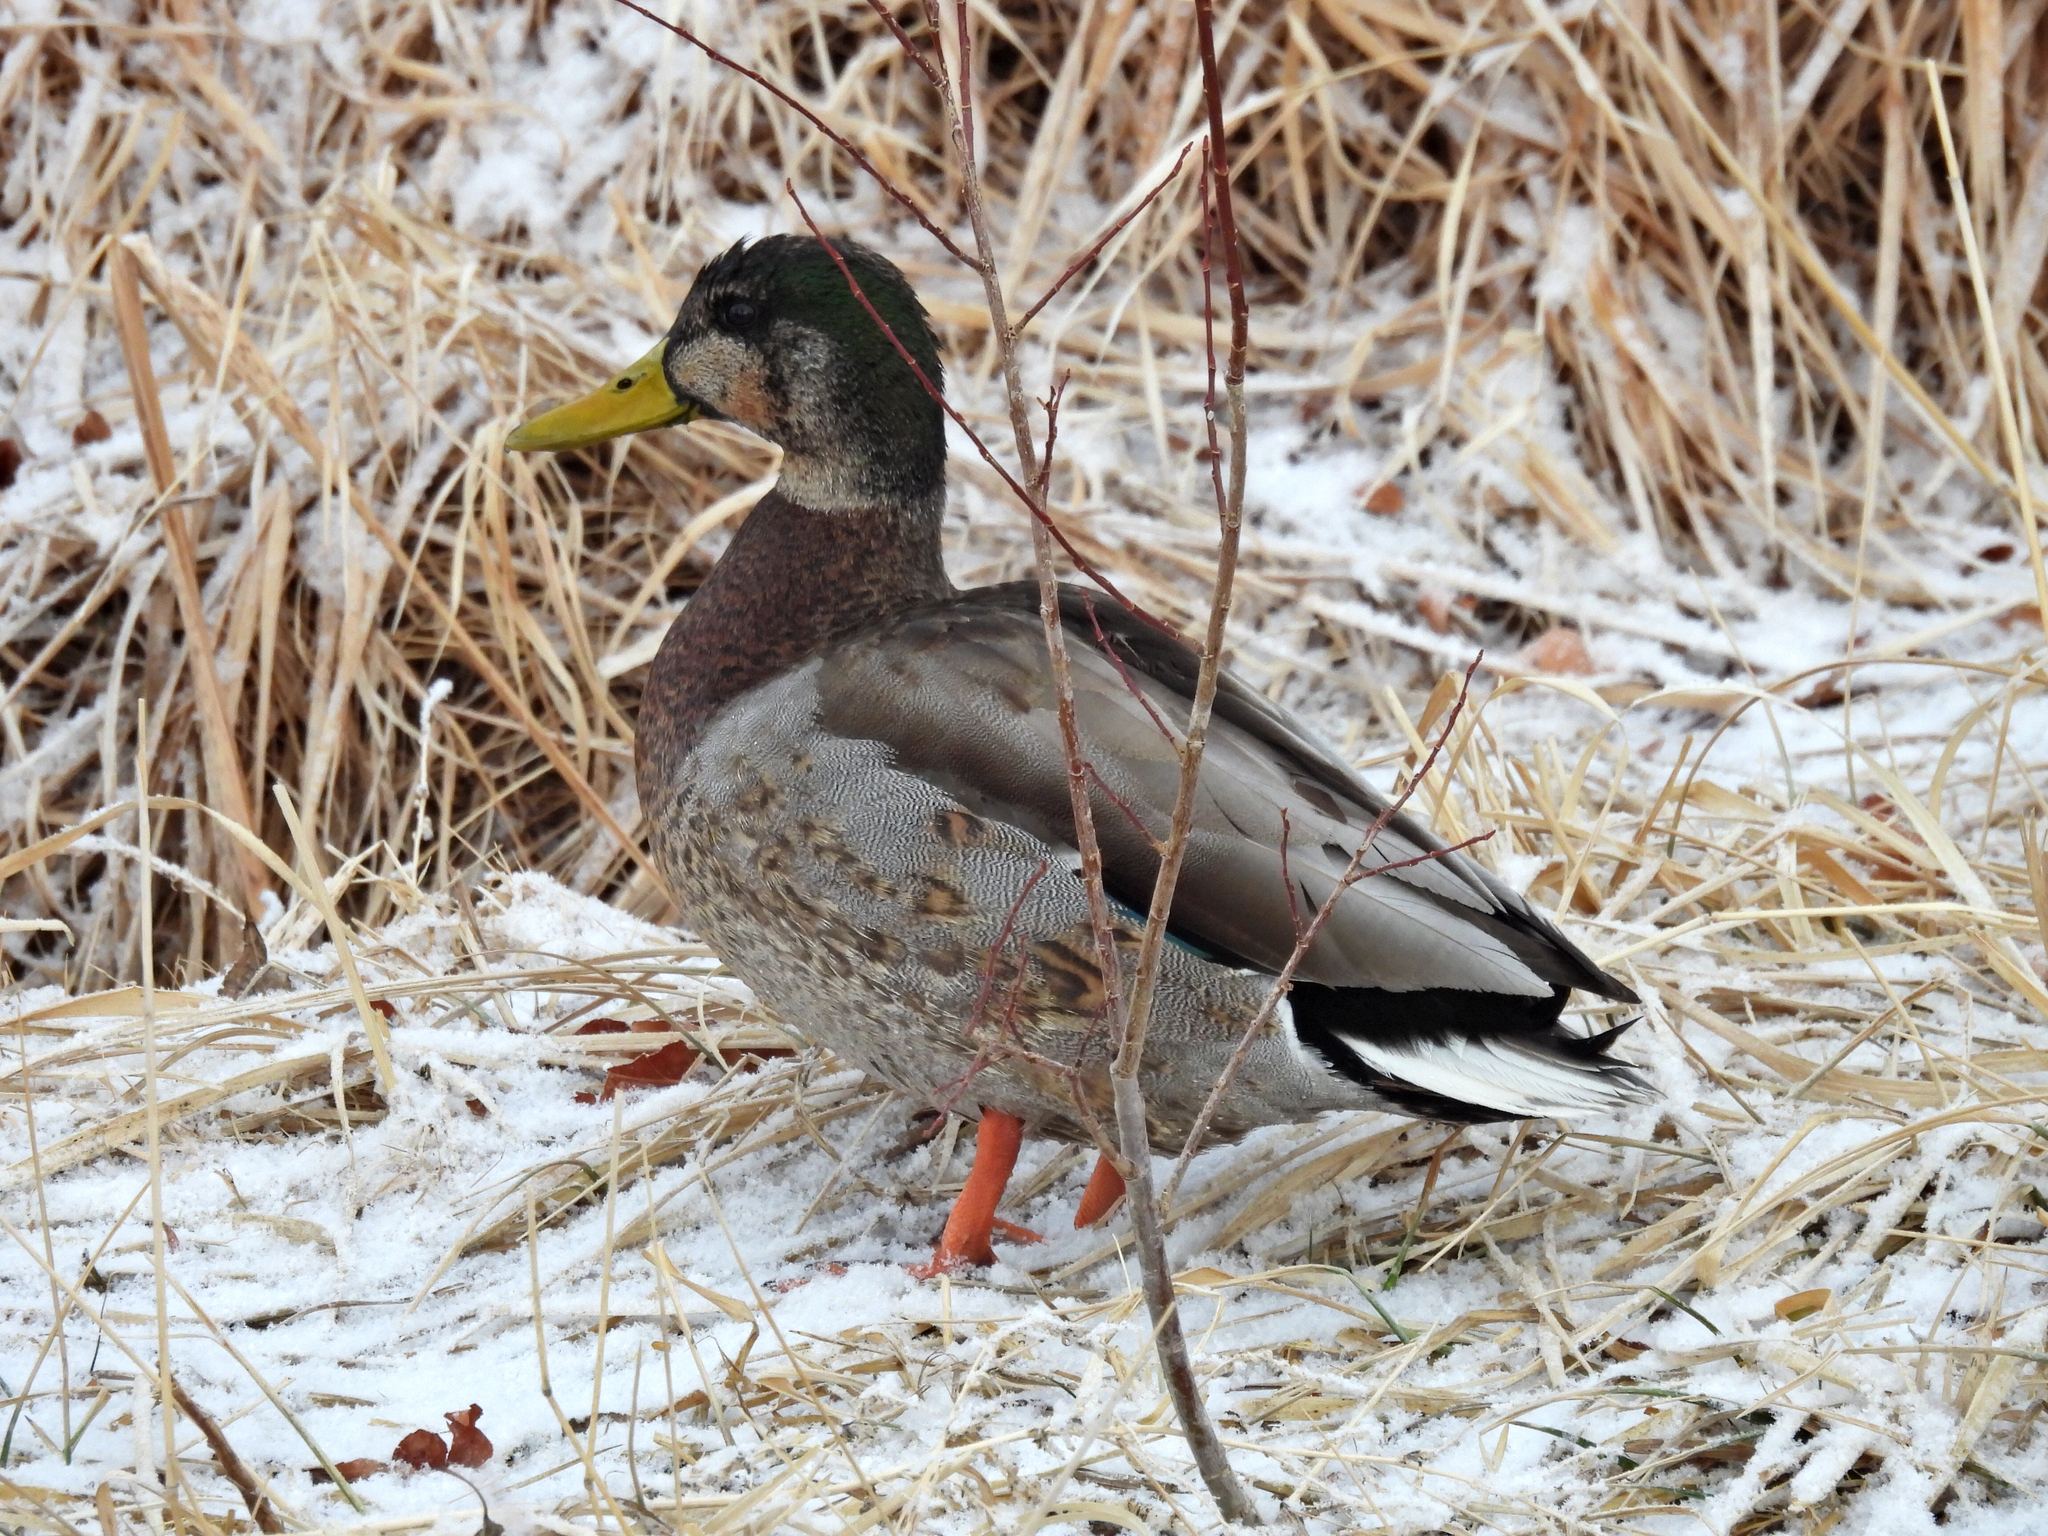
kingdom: Animalia
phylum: Chordata
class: Aves
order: Anseriformes
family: Anatidae
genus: Anas
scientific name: Anas
